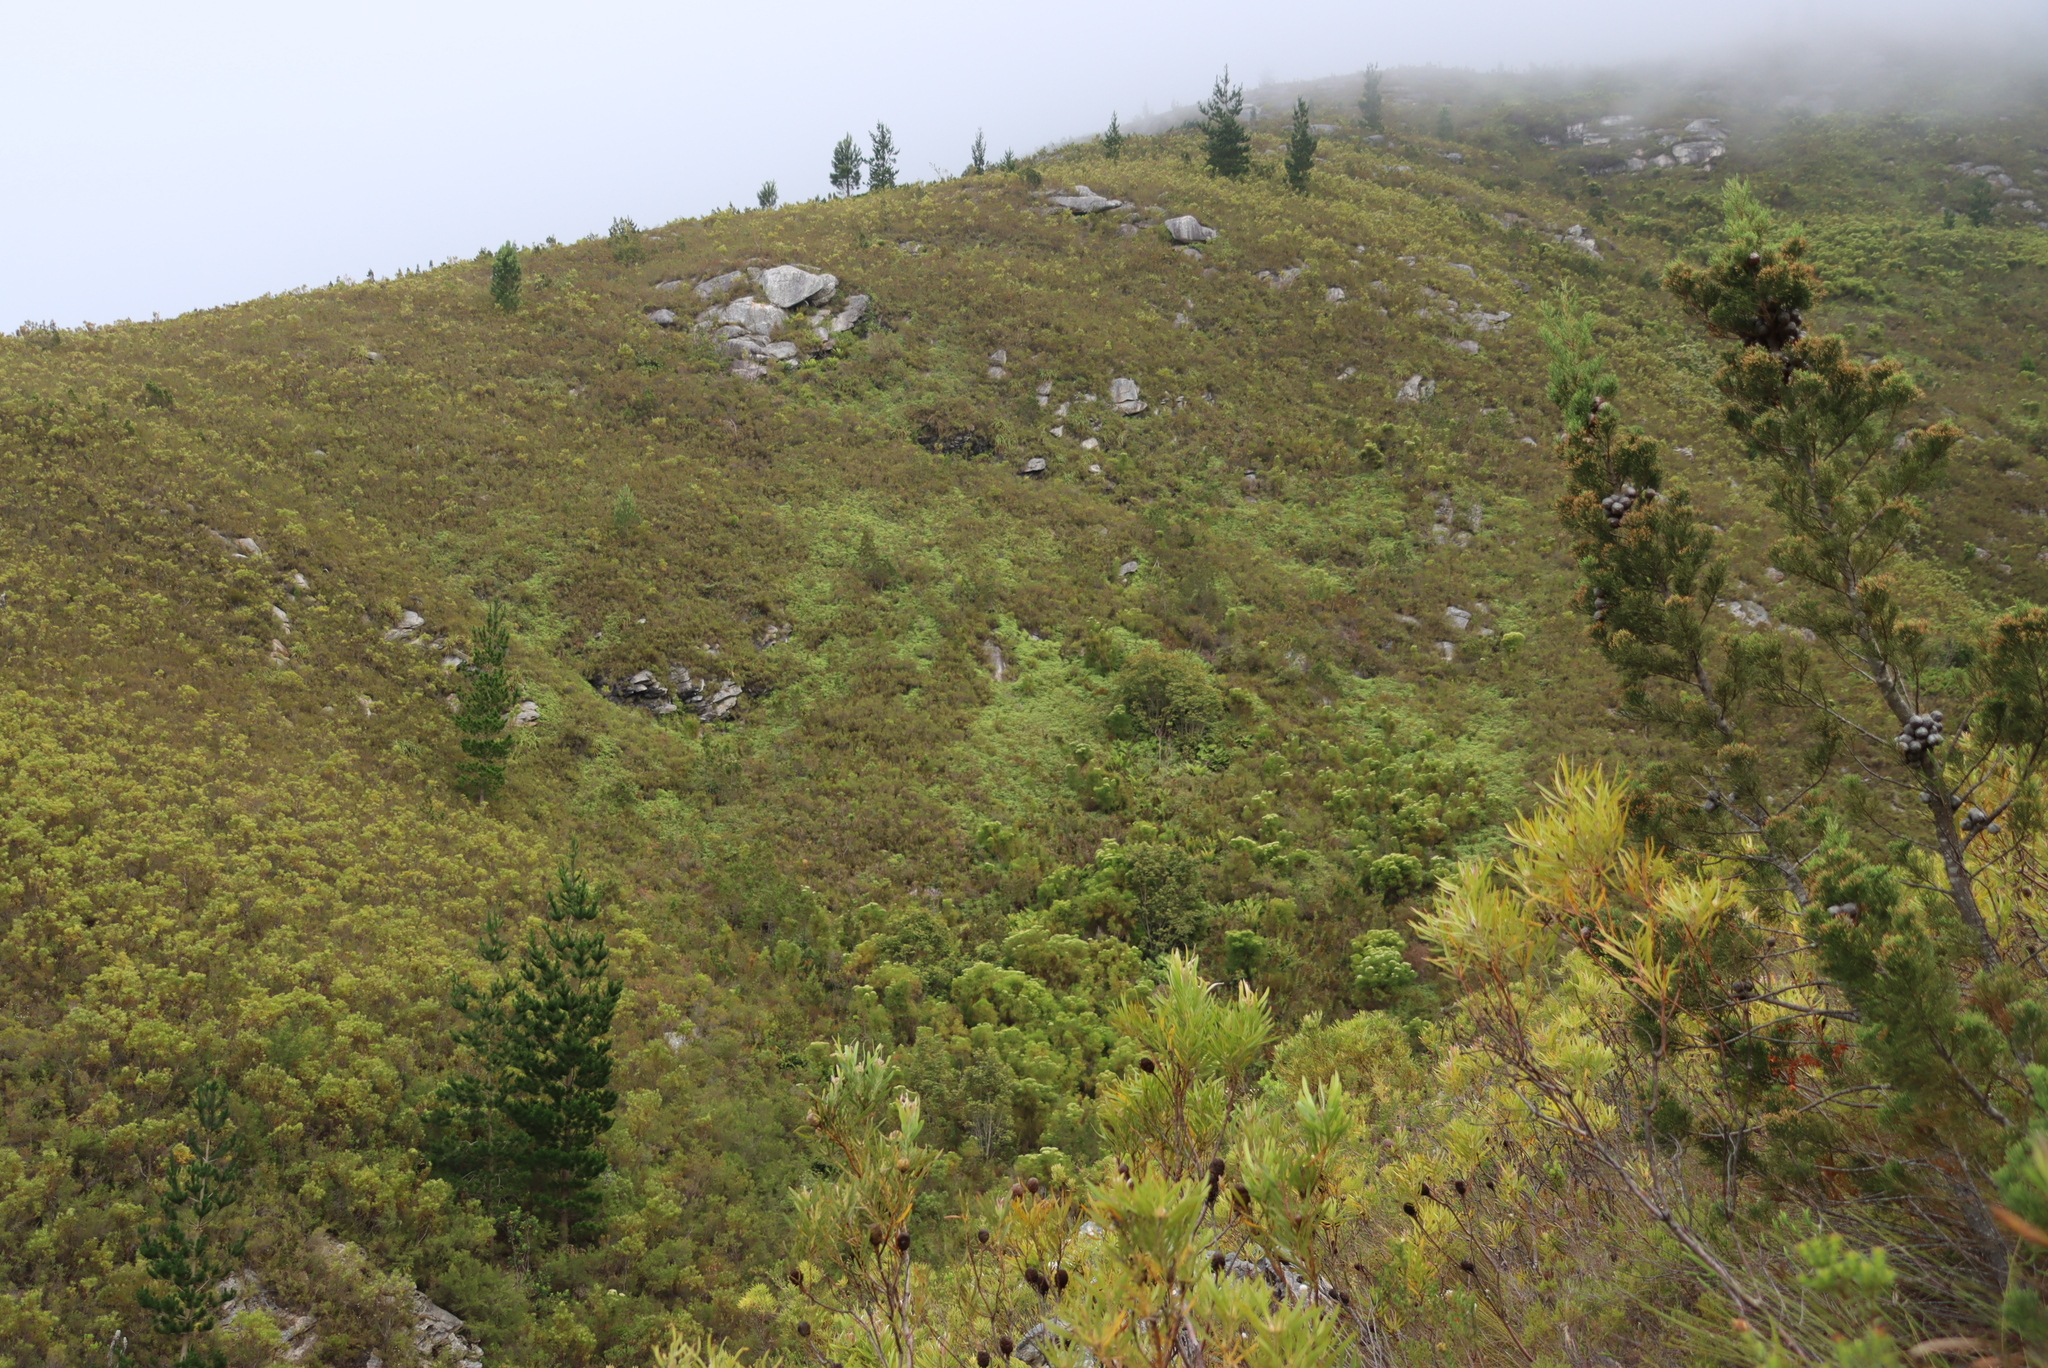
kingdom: Plantae
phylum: Tracheophyta
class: Polypodiopsida
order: Gleicheniales
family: Gleicheniaceae
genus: Gleichenia
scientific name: Gleichenia polypodioides
